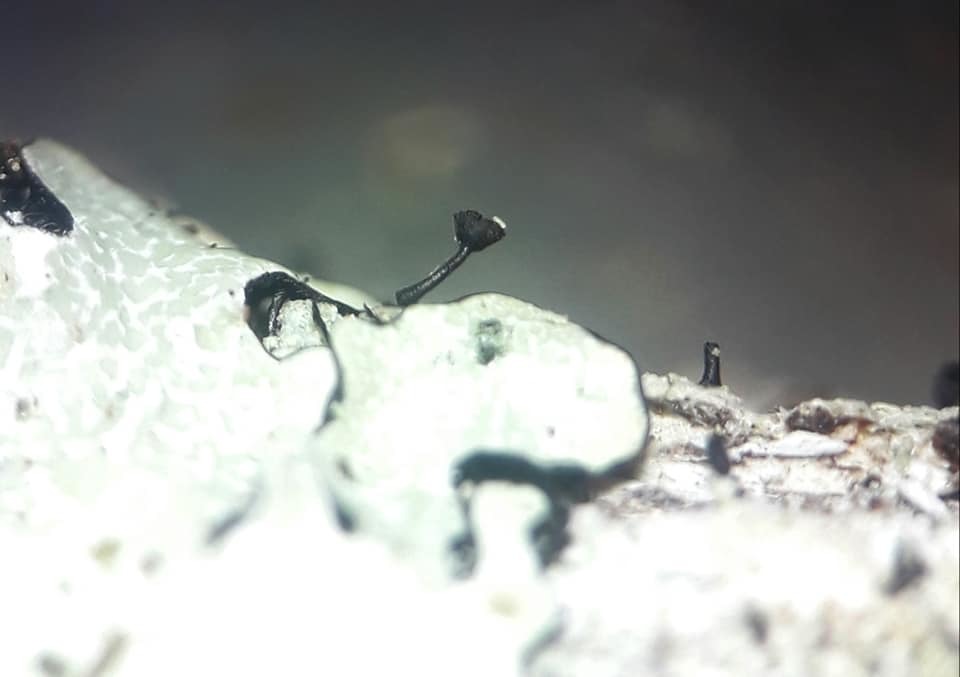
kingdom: Fungi
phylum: Ascomycota
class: Lecanoromycetes
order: Caliciales
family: Caliciaceae
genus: Calicium
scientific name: Calicium hyperelloides
